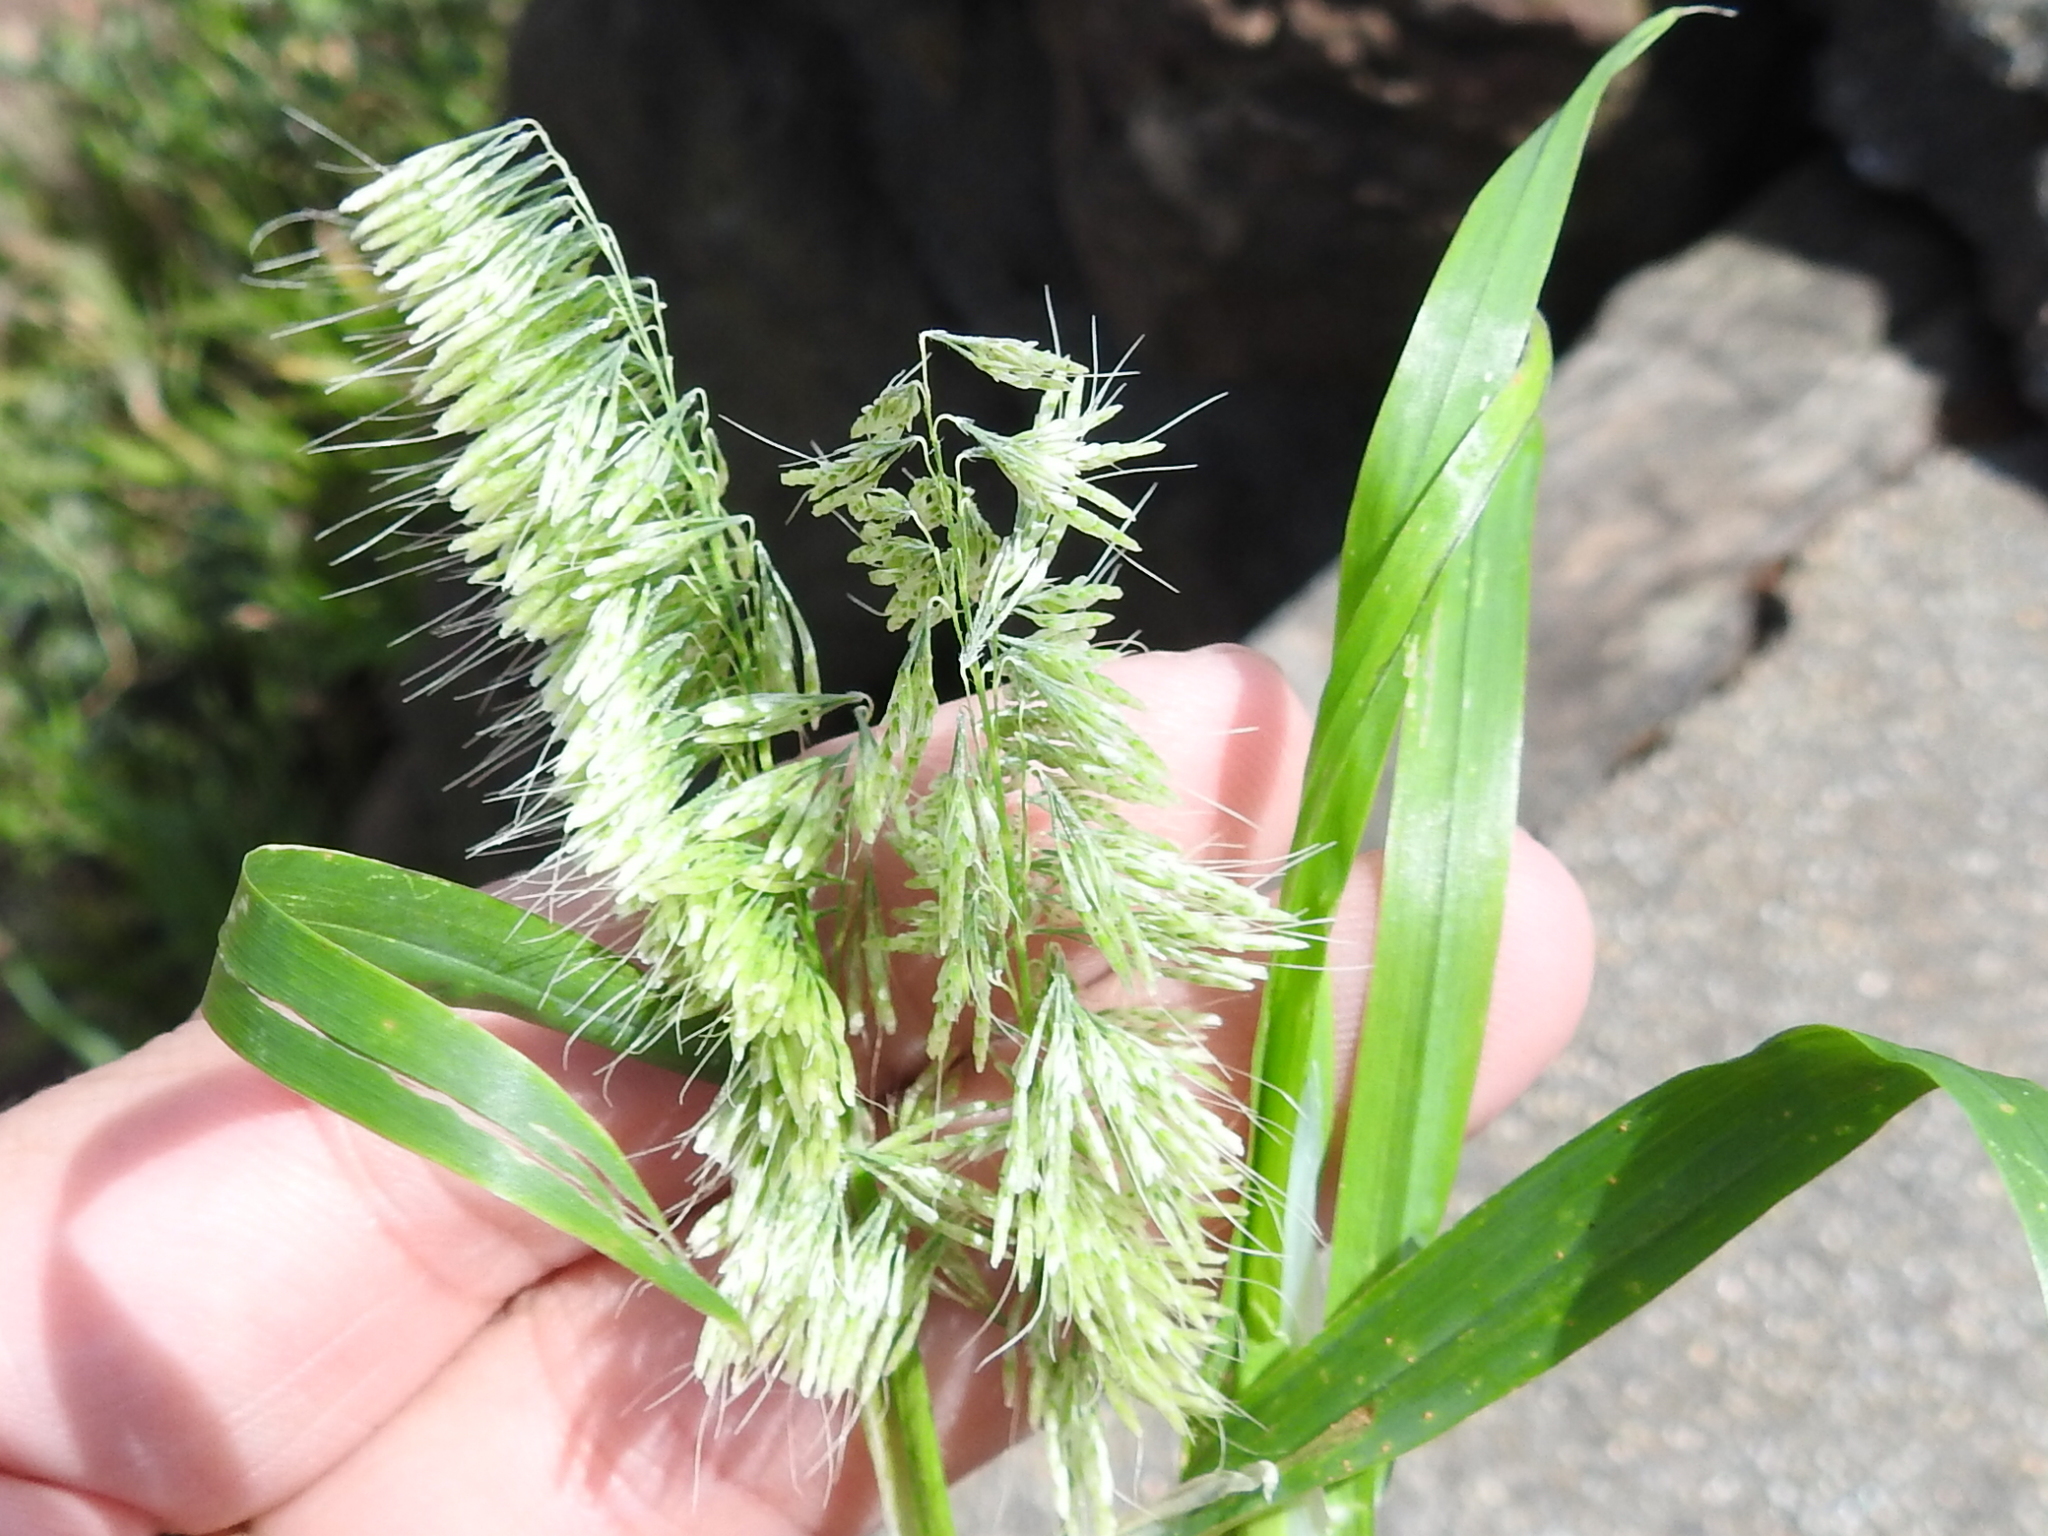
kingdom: Plantae
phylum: Tracheophyta
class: Liliopsida
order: Poales
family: Poaceae
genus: Lamarckia
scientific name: Lamarckia aurea
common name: Golden dog's-tail
